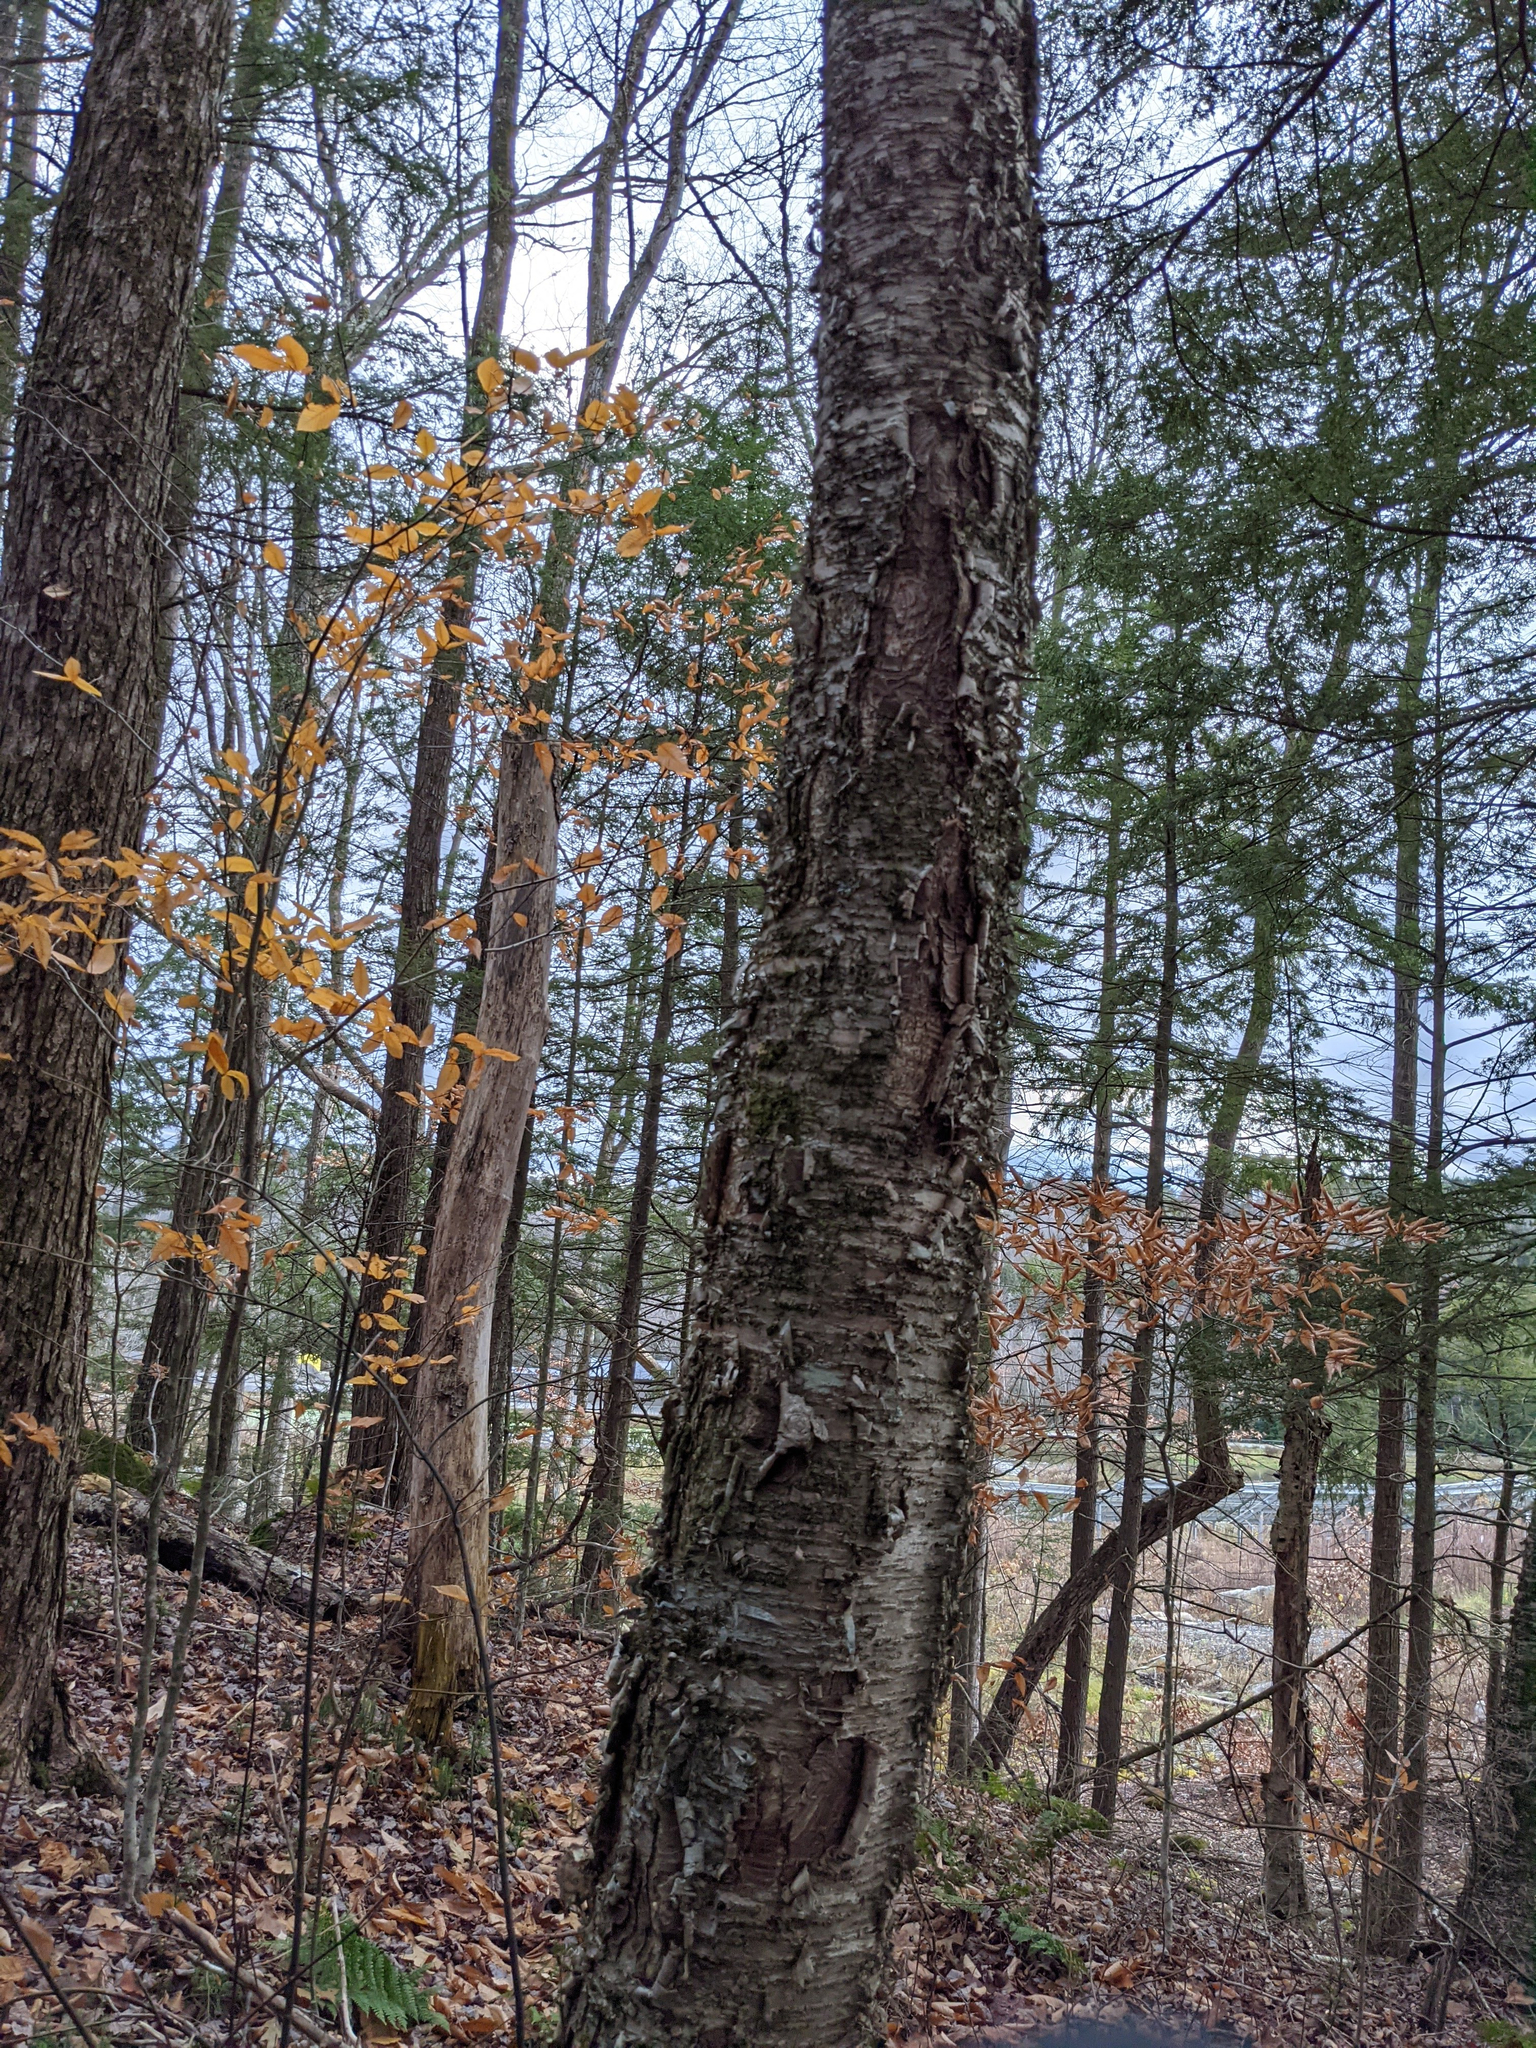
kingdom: Plantae
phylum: Tracheophyta
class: Magnoliopsida
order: Fagales
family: Betulaceae
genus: Betula
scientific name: Betula alleghaniensis
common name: Yellow birch
